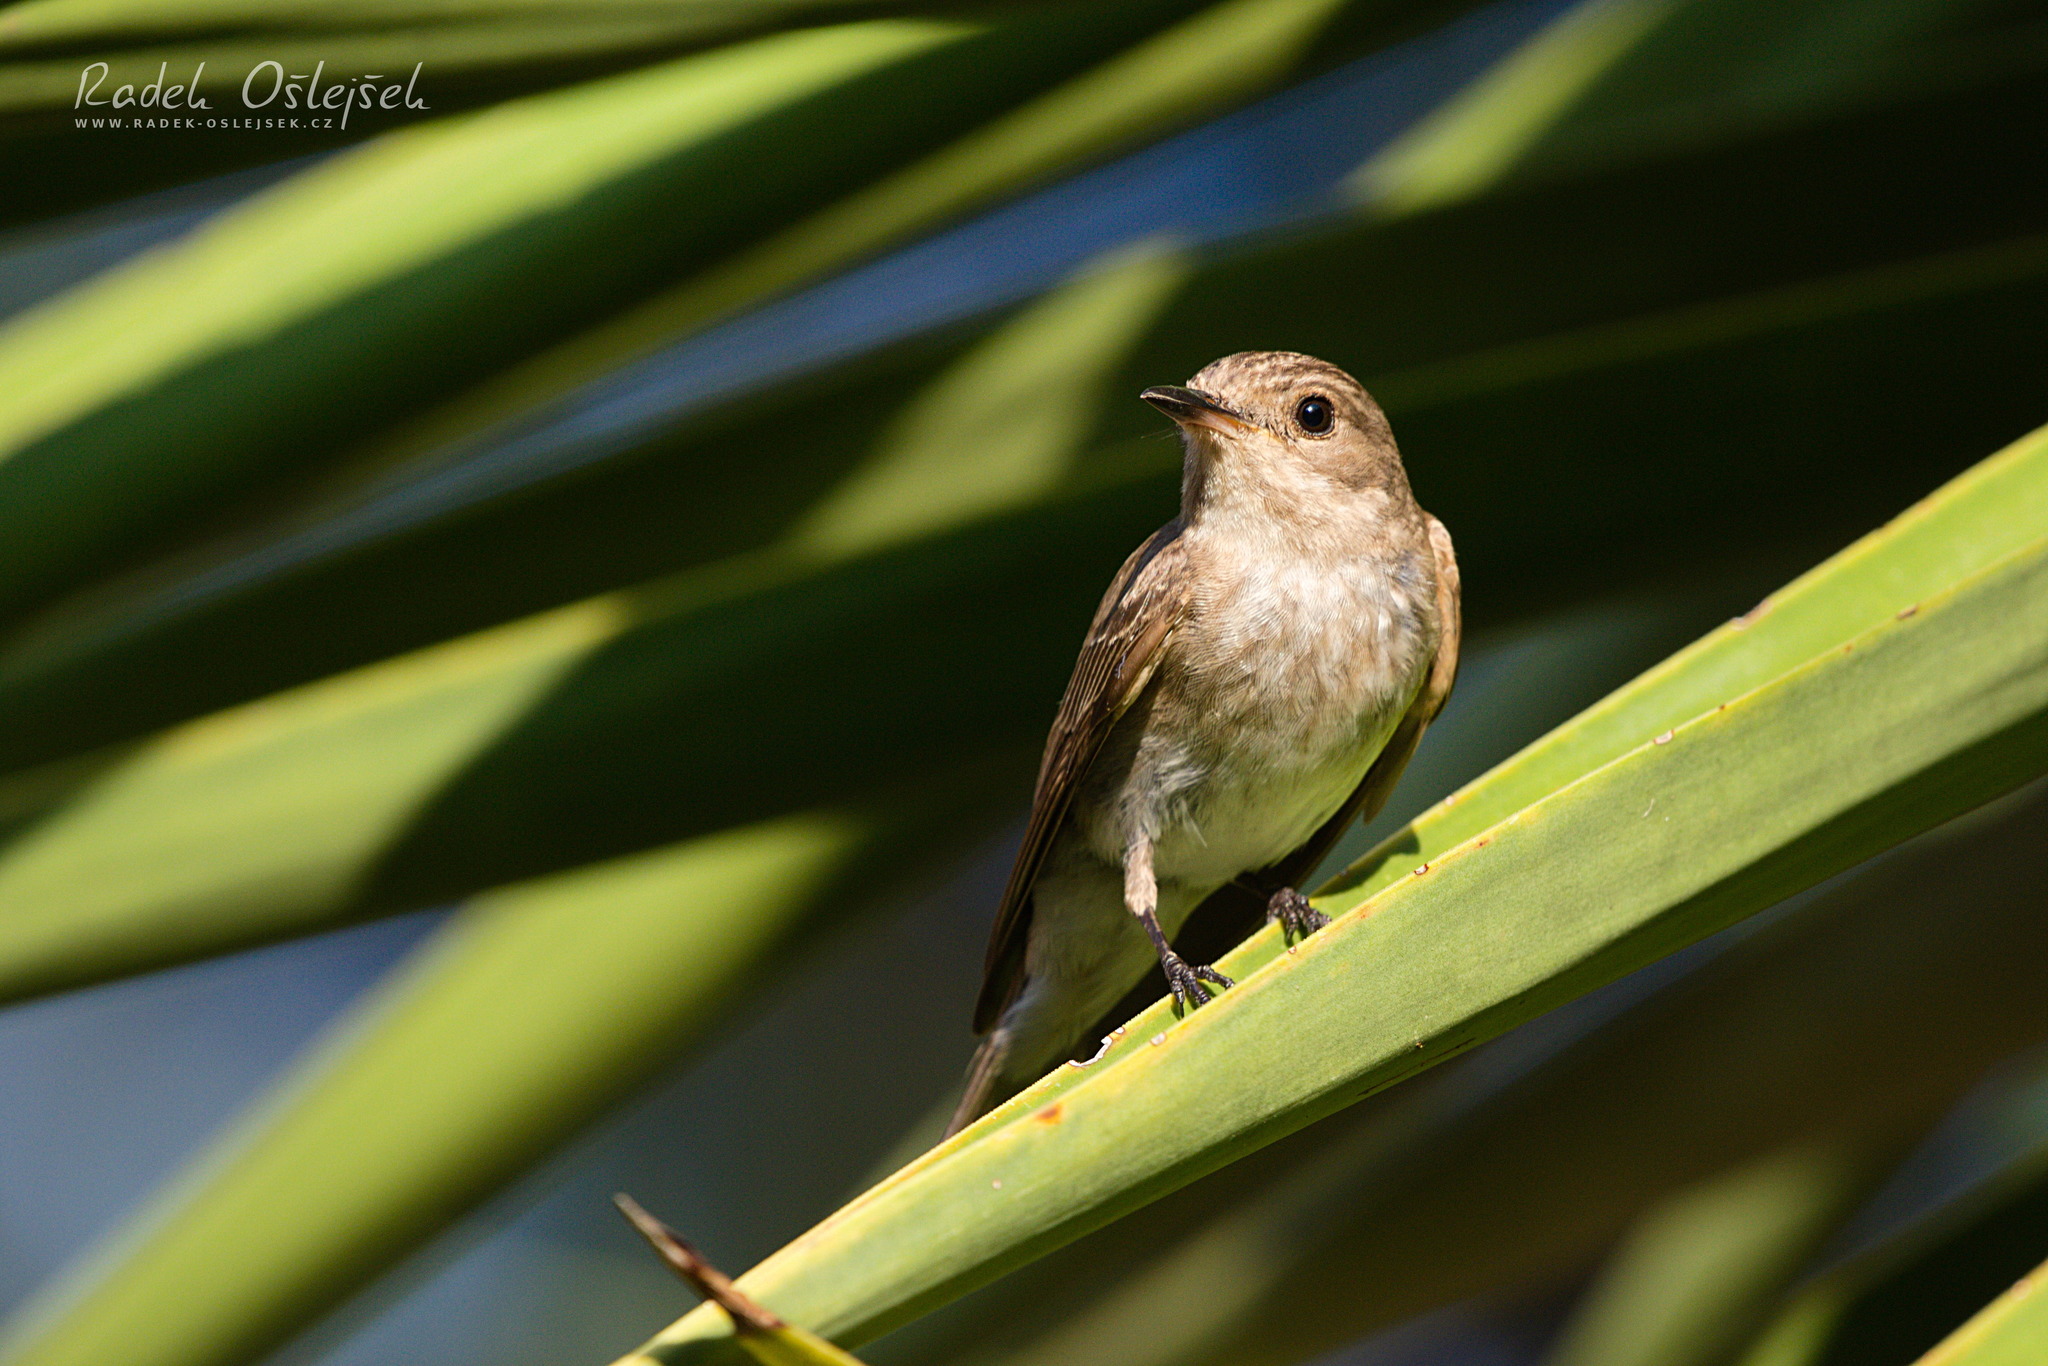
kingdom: Animalia
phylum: Chordata
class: Aves
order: Passeriformes
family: Muscicapidae
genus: Muscicapa
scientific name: Muscicapa striata
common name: Spotted flycatcher
